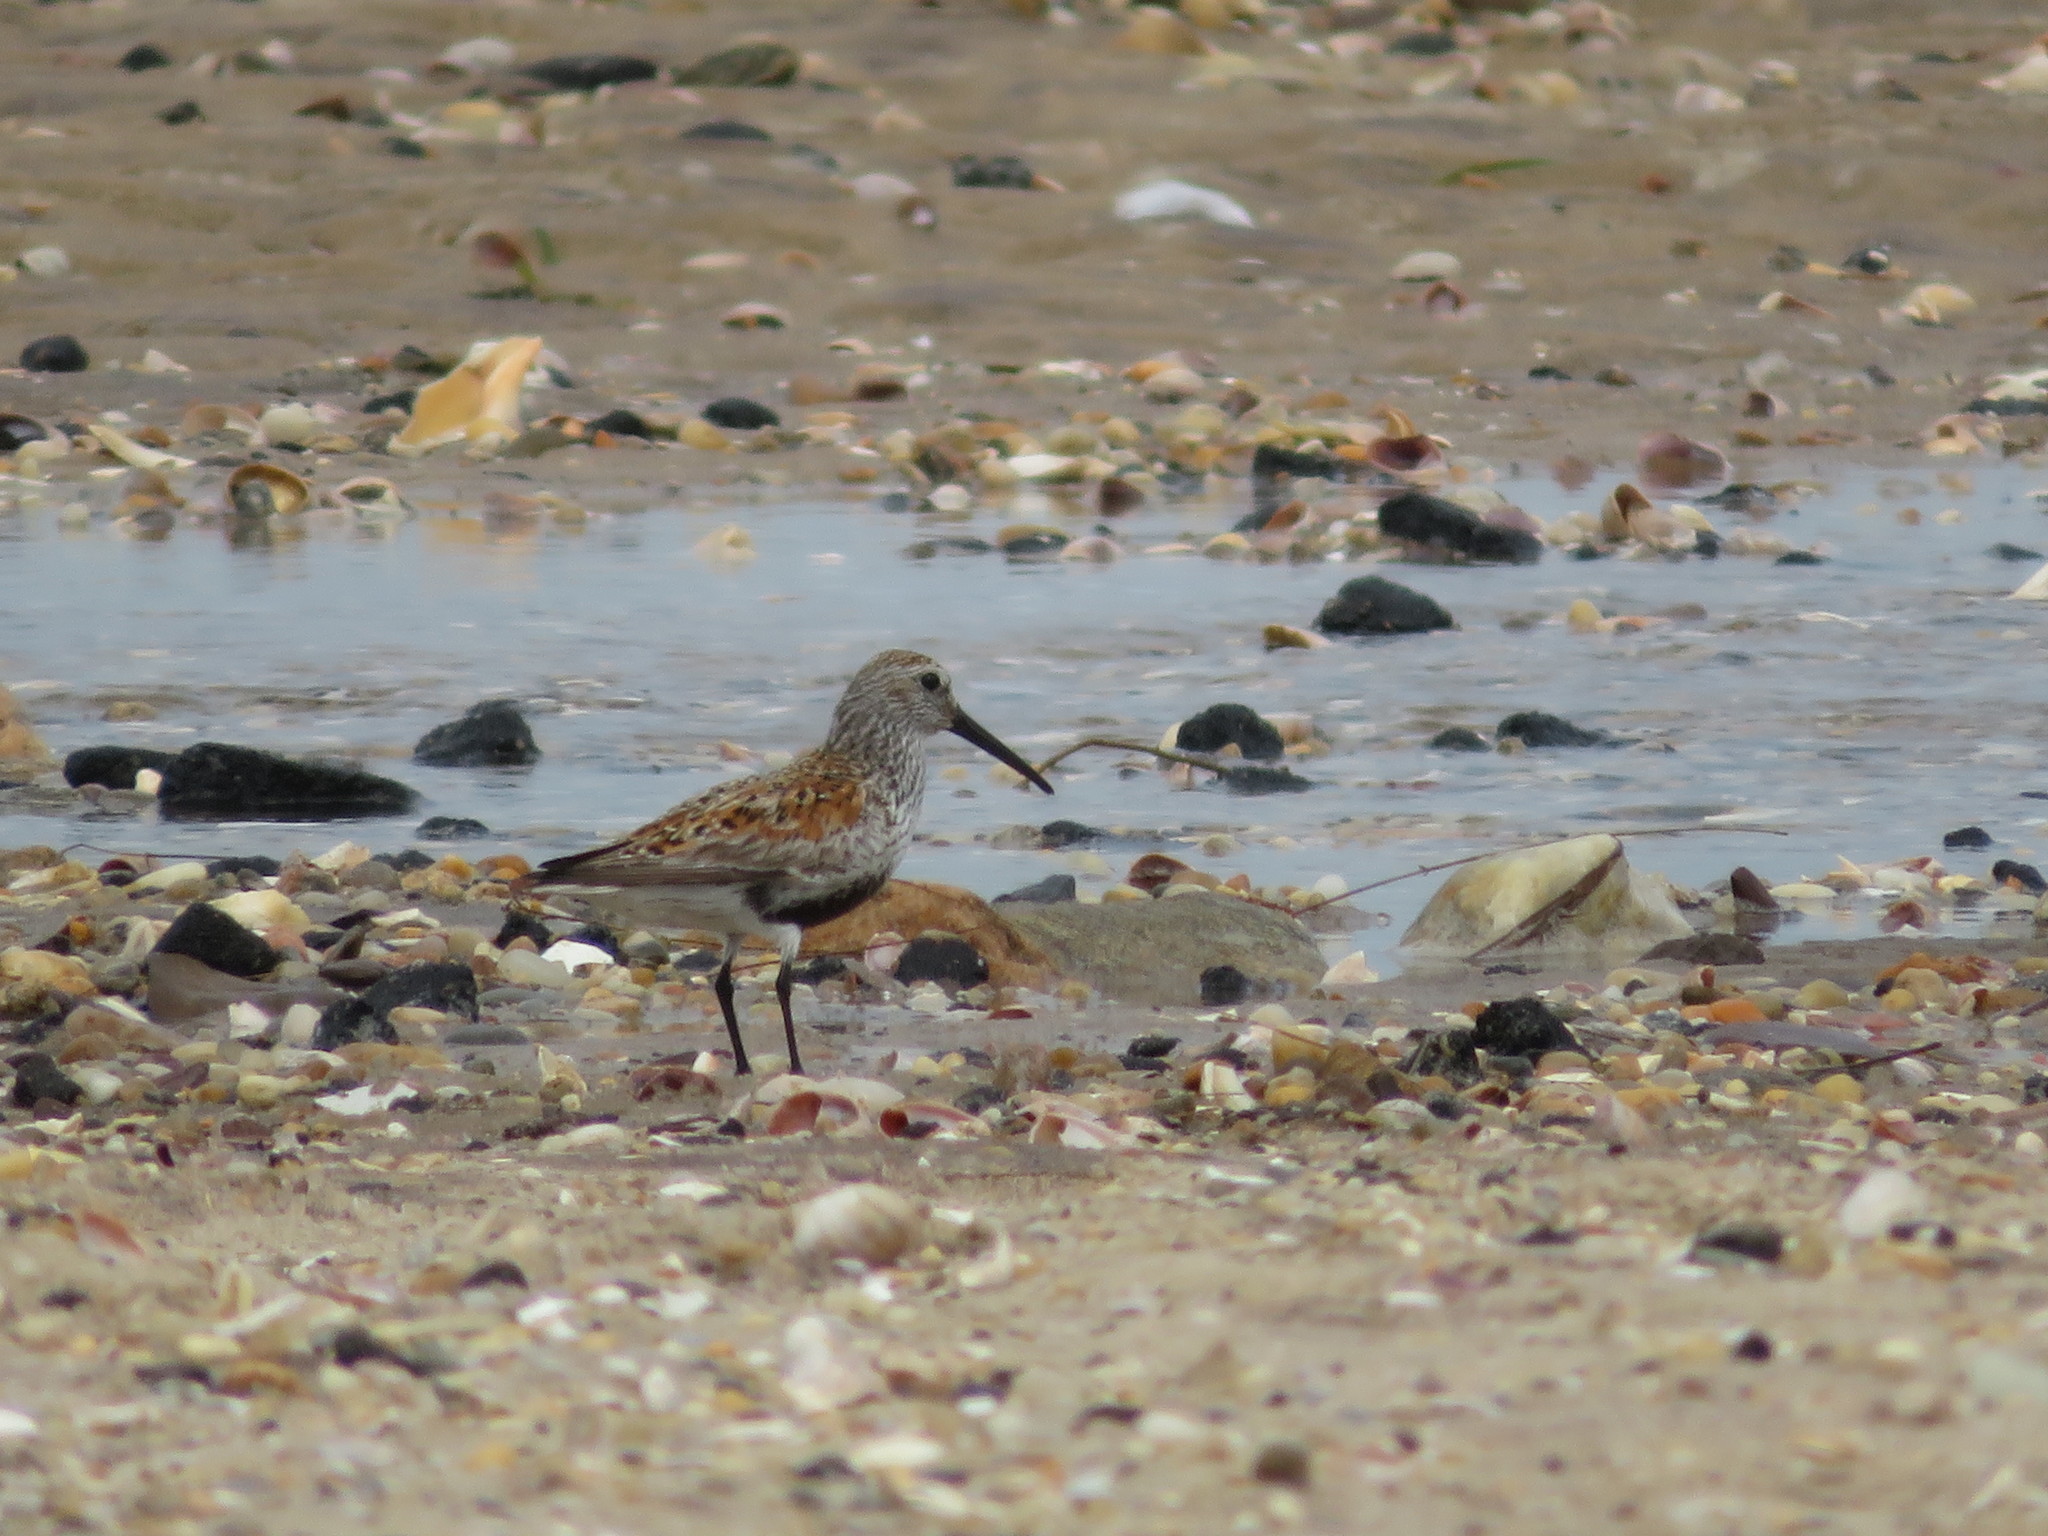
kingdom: Animalia
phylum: Chordata
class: Aves
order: Charadriiformes
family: Scolopacidae
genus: Calidris
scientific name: Calidris alpina
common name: Dunlin
